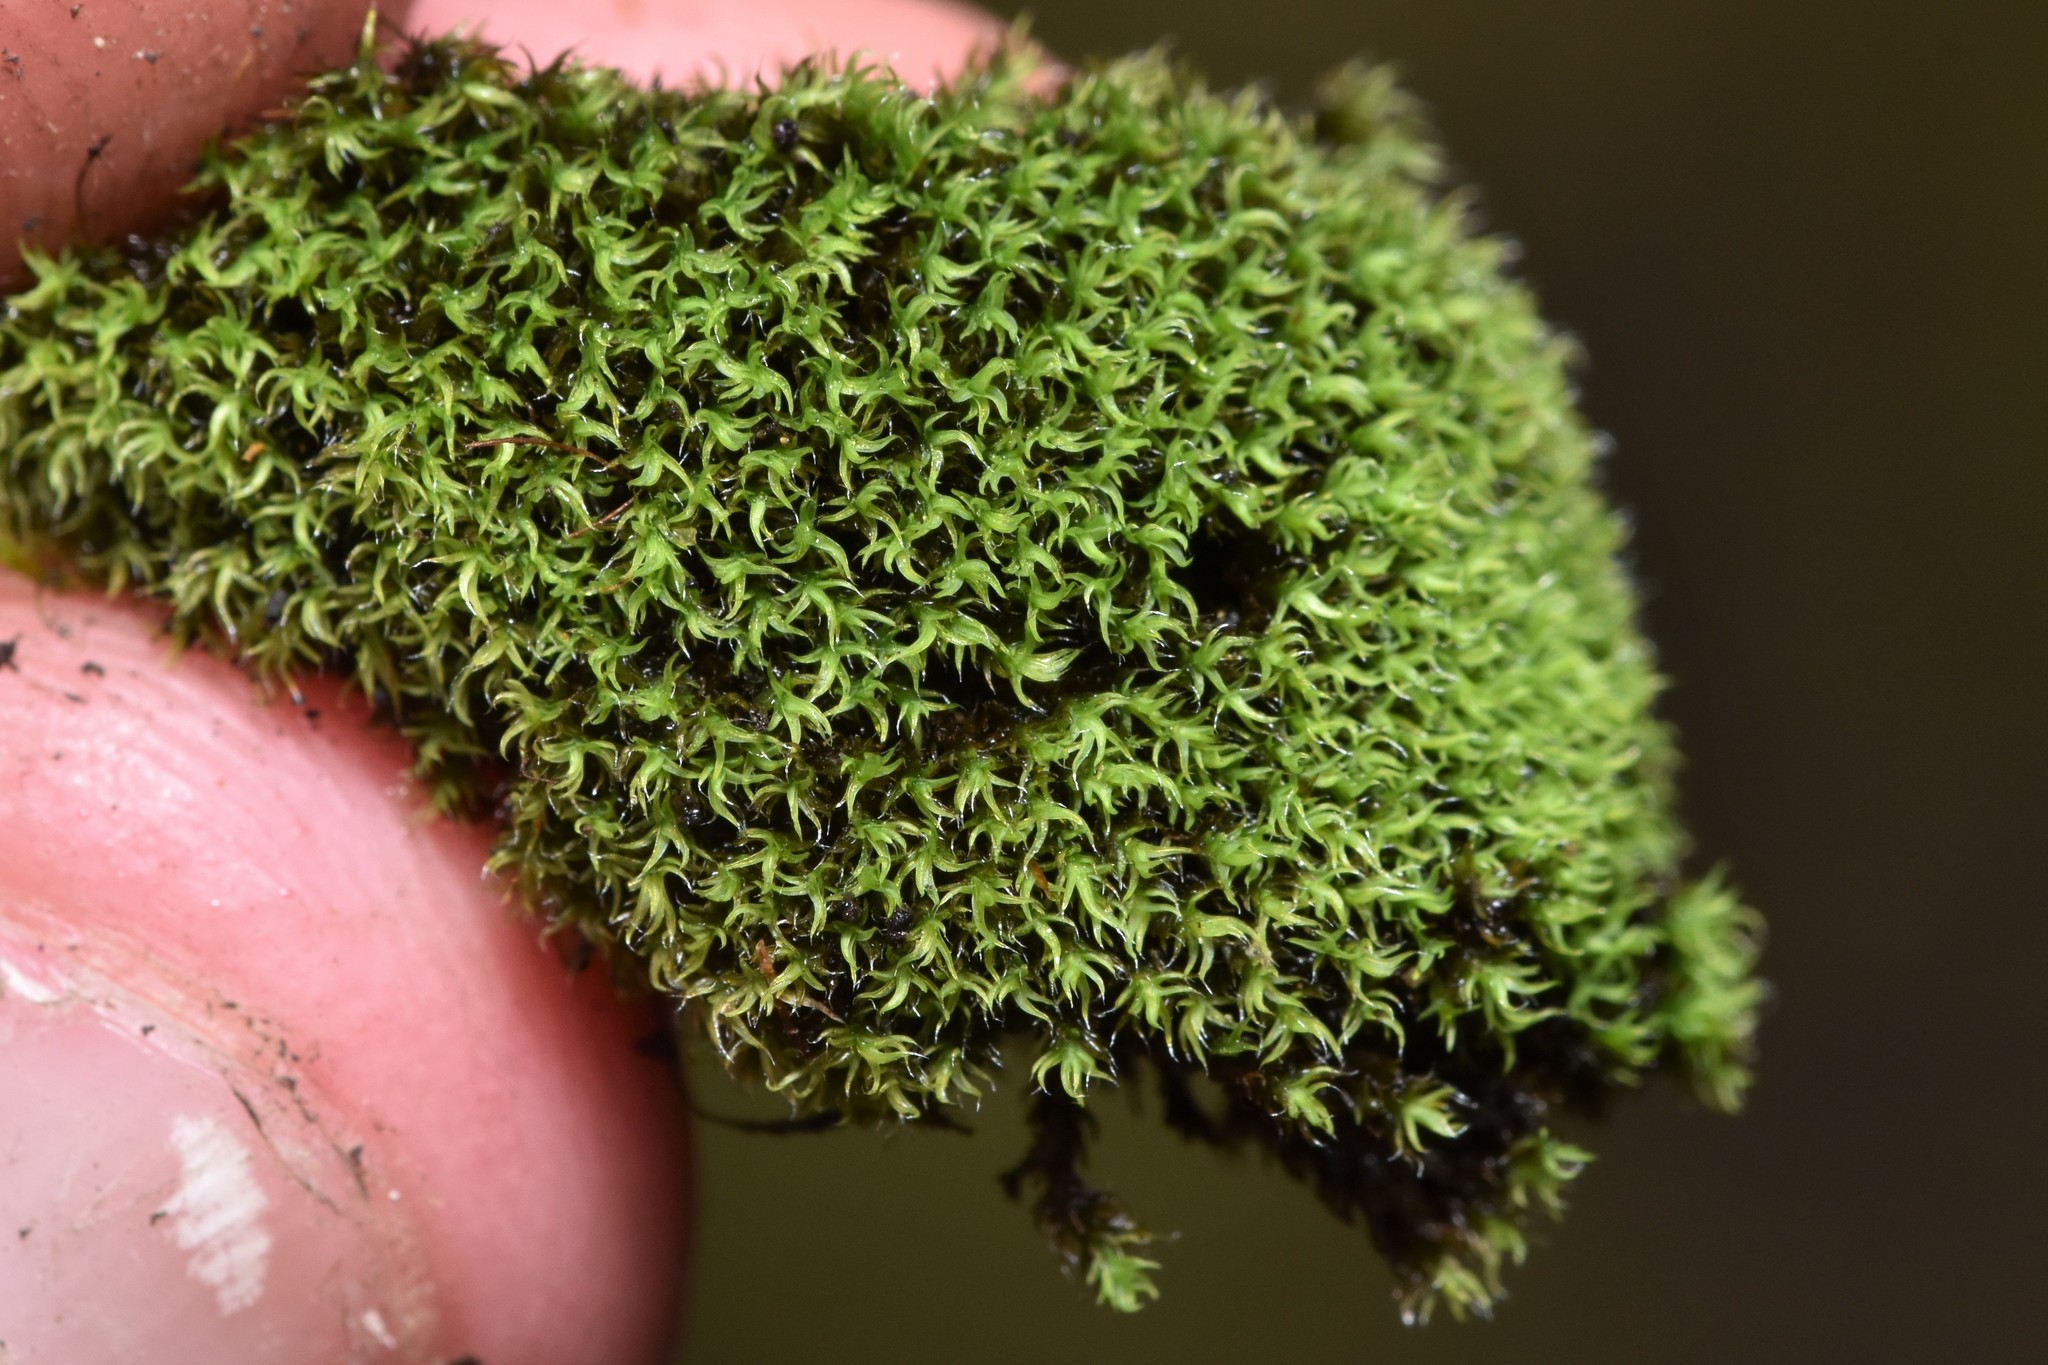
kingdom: Plantae
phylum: Bryophyta
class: Bryopsida
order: Grimmiales
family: Grimmiaceae
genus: Grimmia
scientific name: Grimmia torquata
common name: Twisted grimmia
